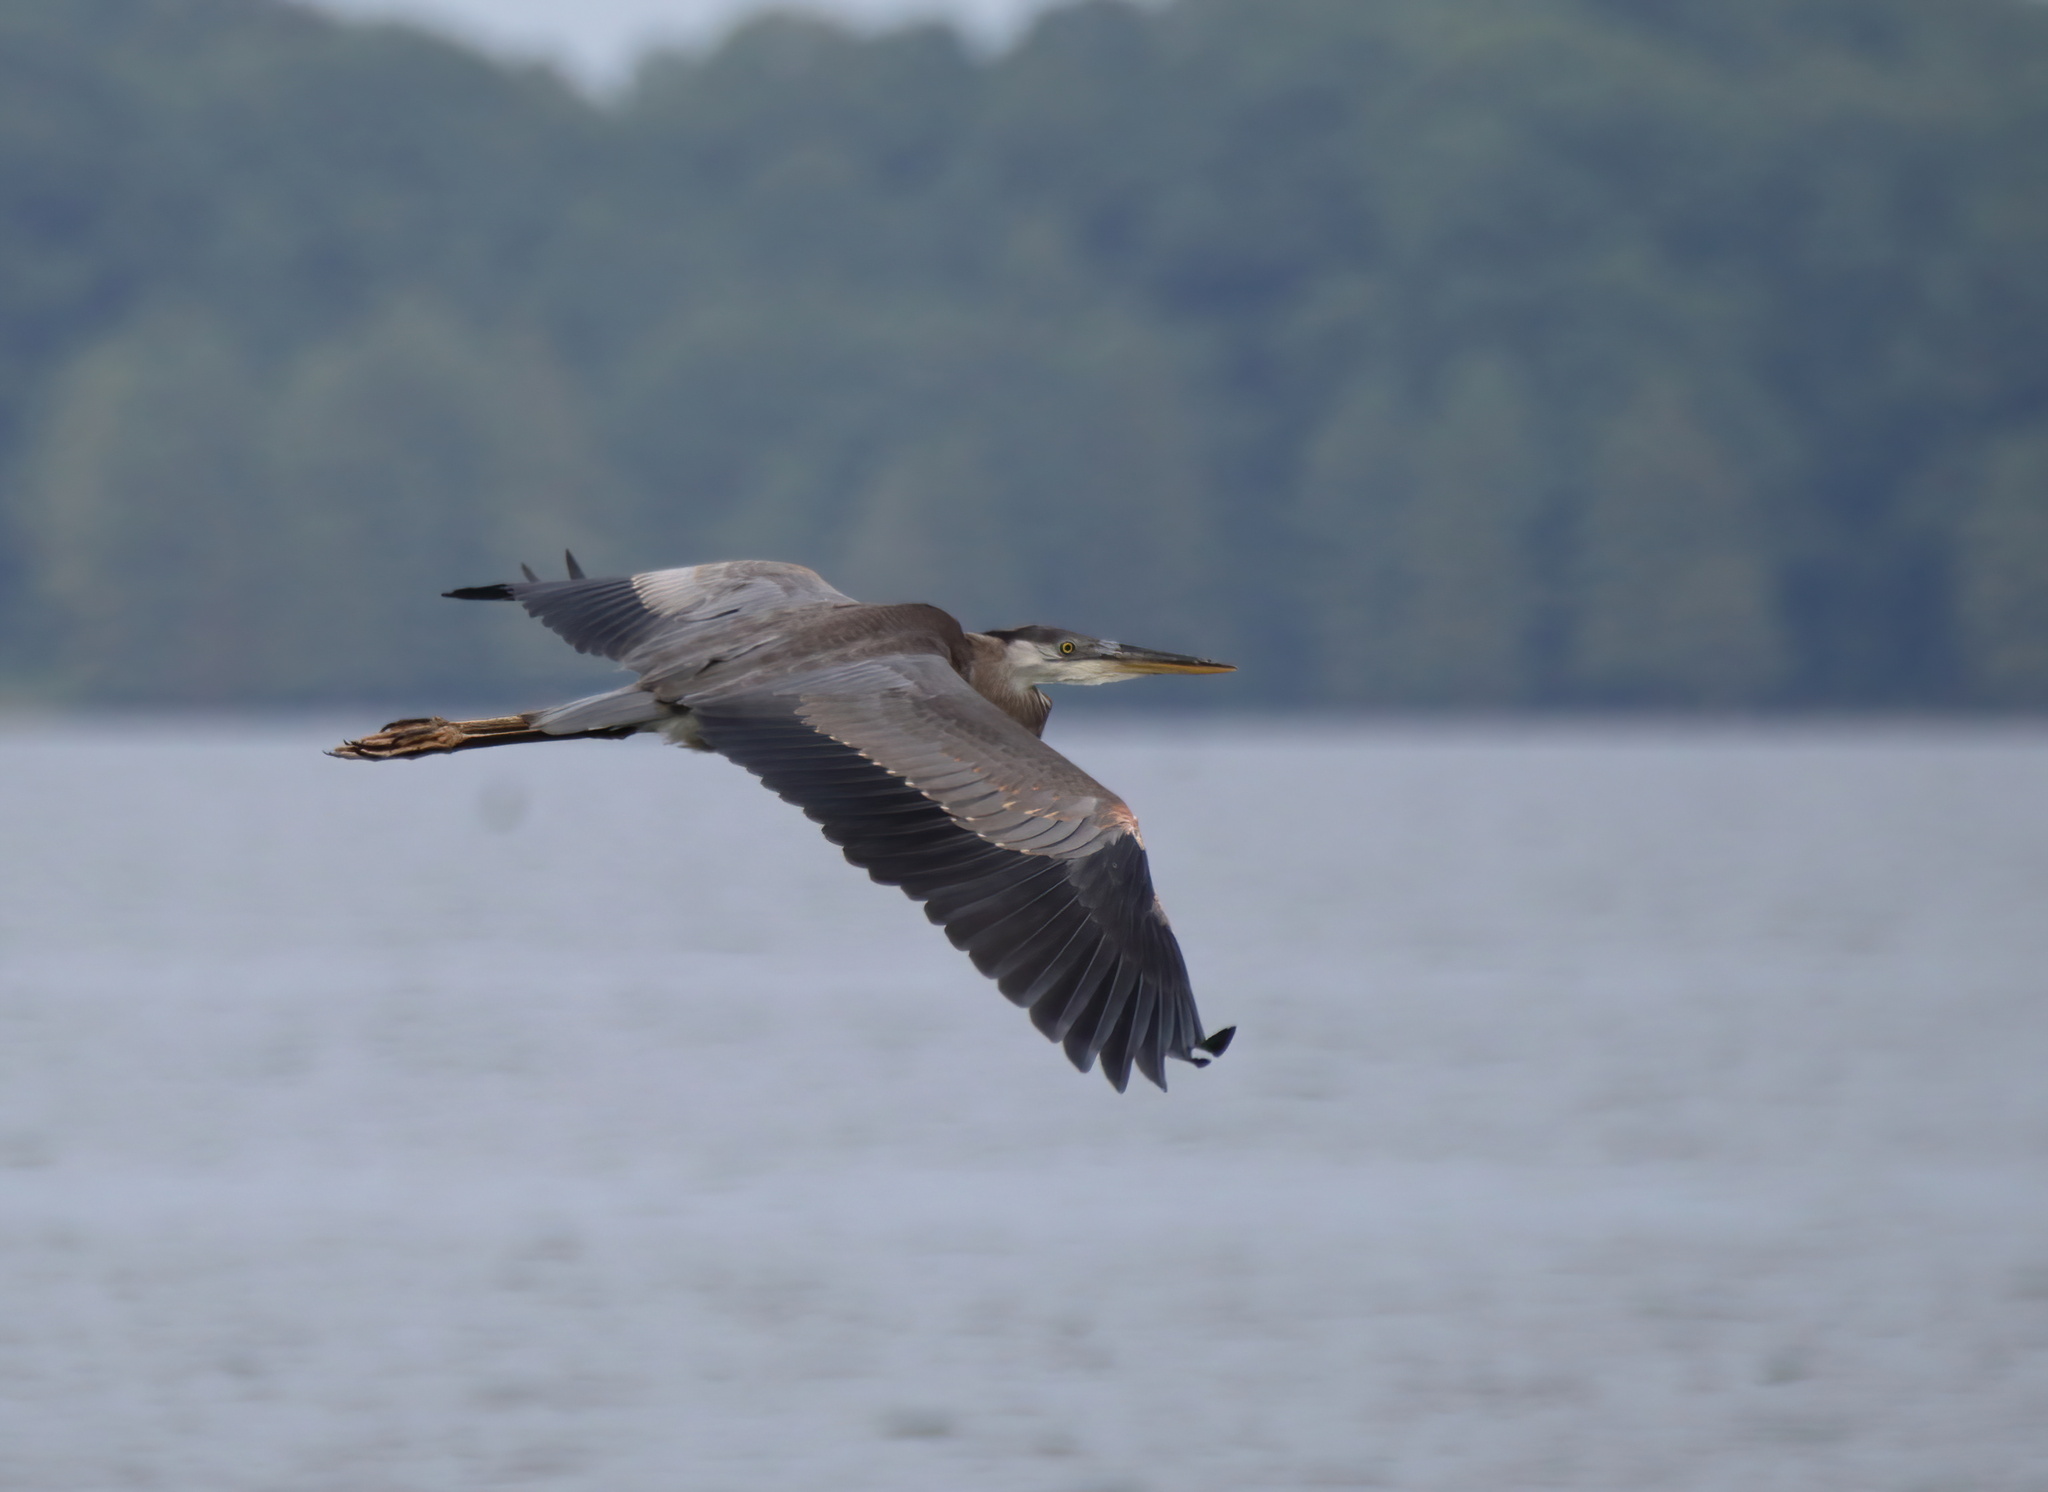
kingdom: Animalia
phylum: Chordata
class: Aves
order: Pelecaniformes
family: Ardeidae
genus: Ardea
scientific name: Ardea herodias
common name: Great blue heron
